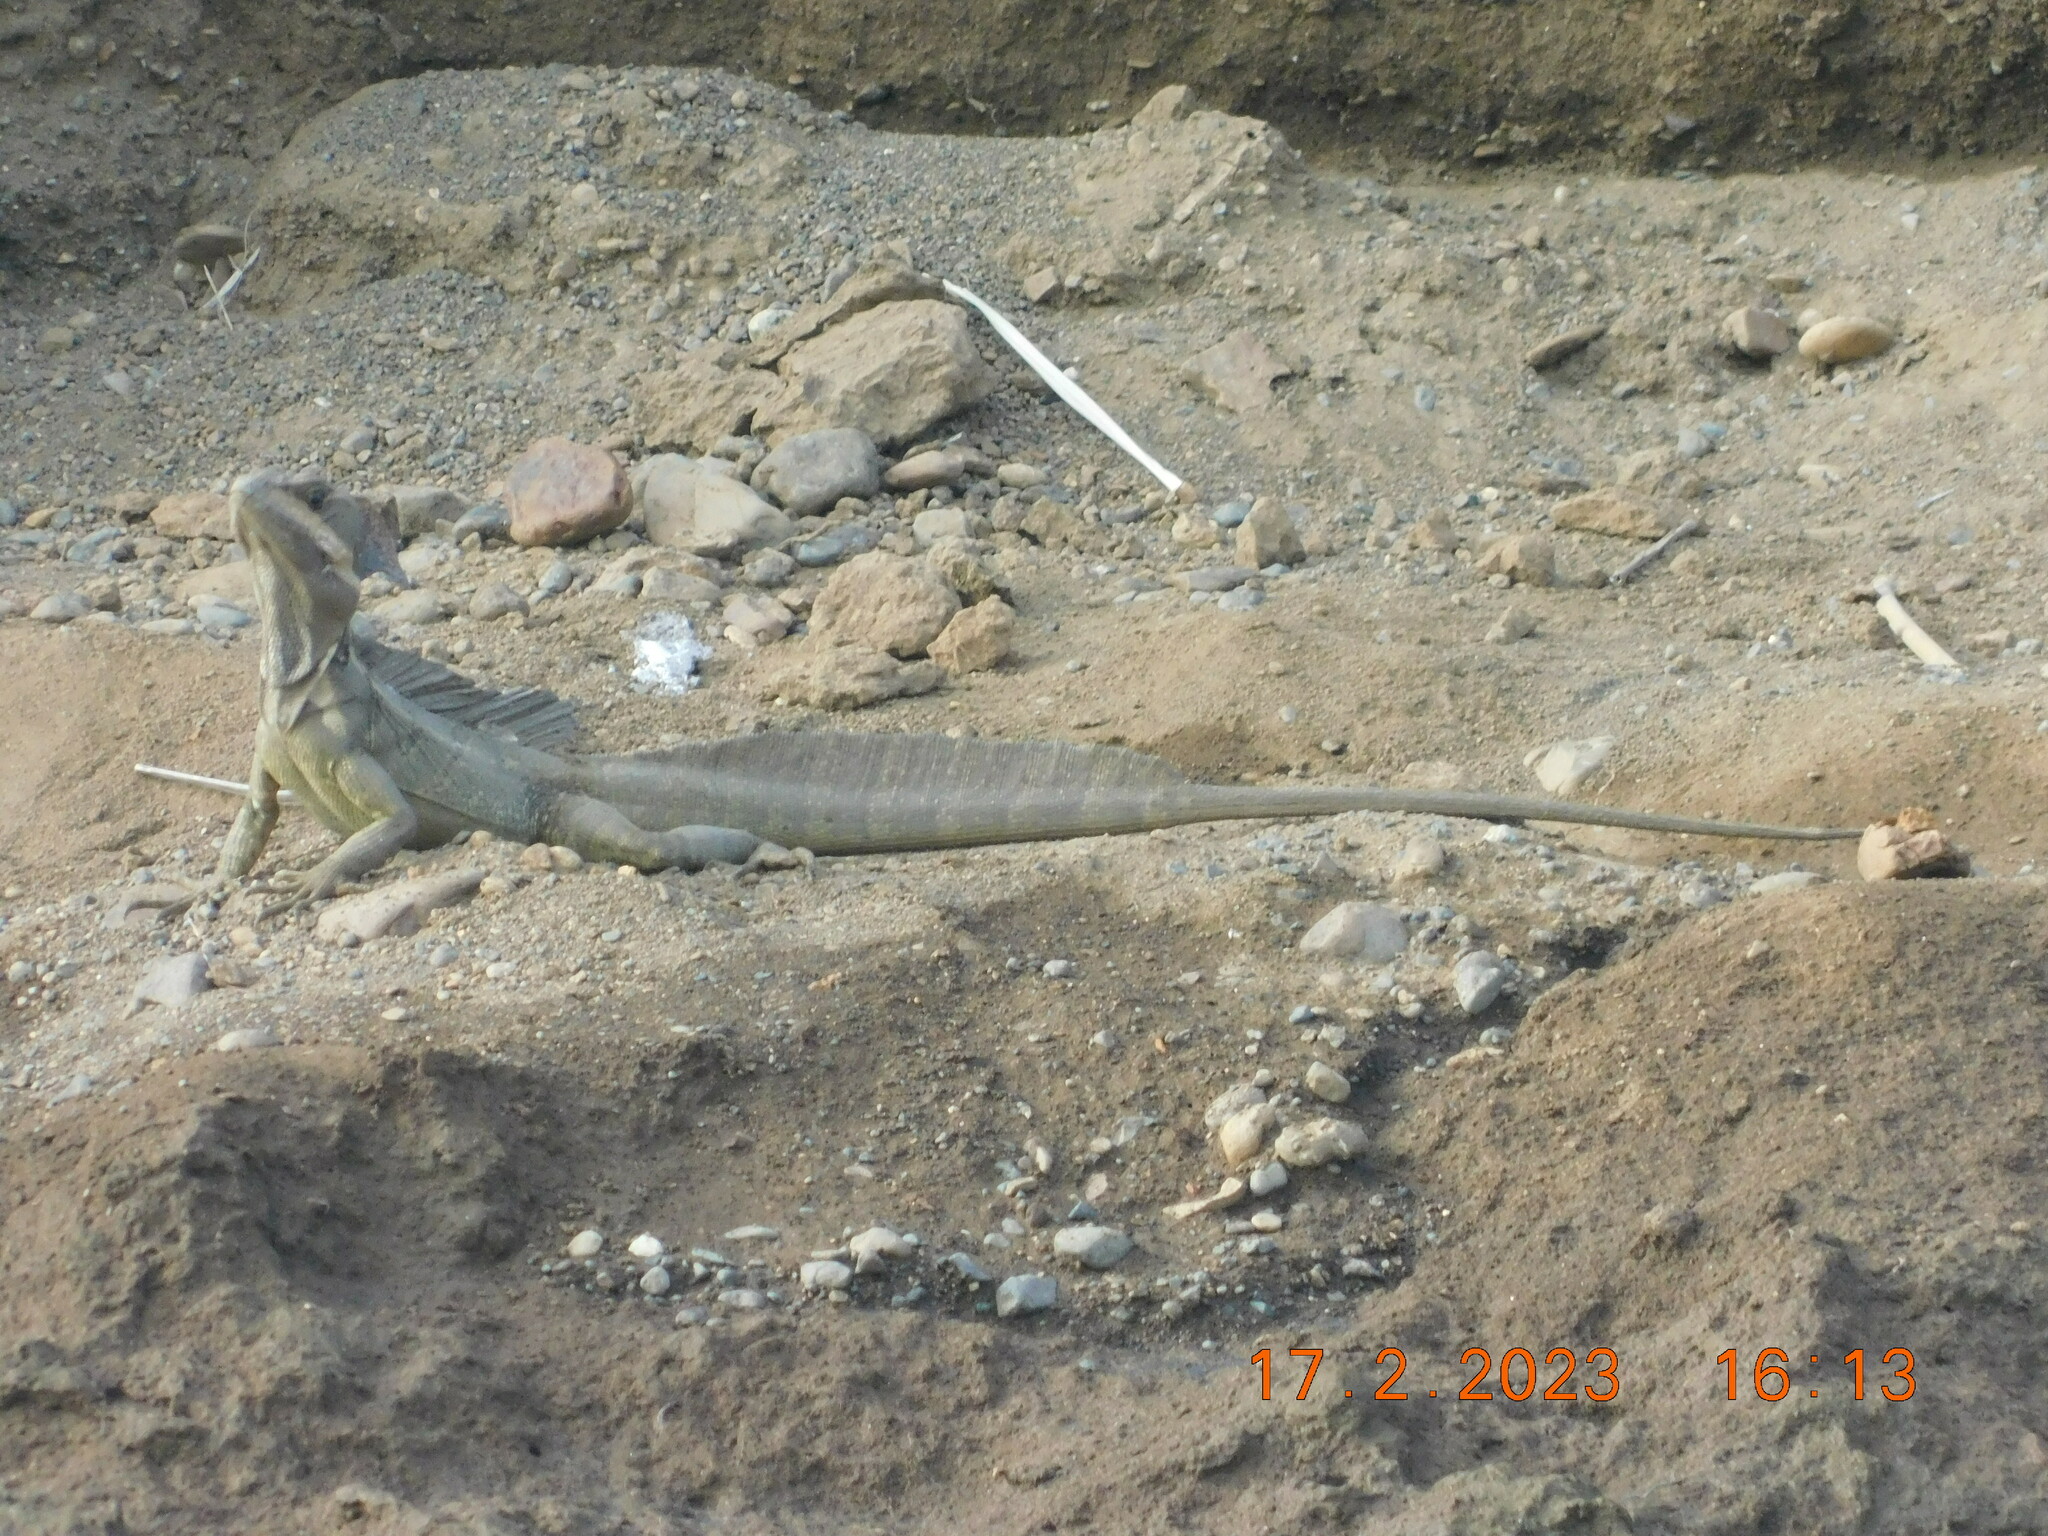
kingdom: Animalia
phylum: Chordata
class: Squamata
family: Corytophanidae
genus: Basiliscus
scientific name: Basiliscus basiliscus
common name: Common basilisk
